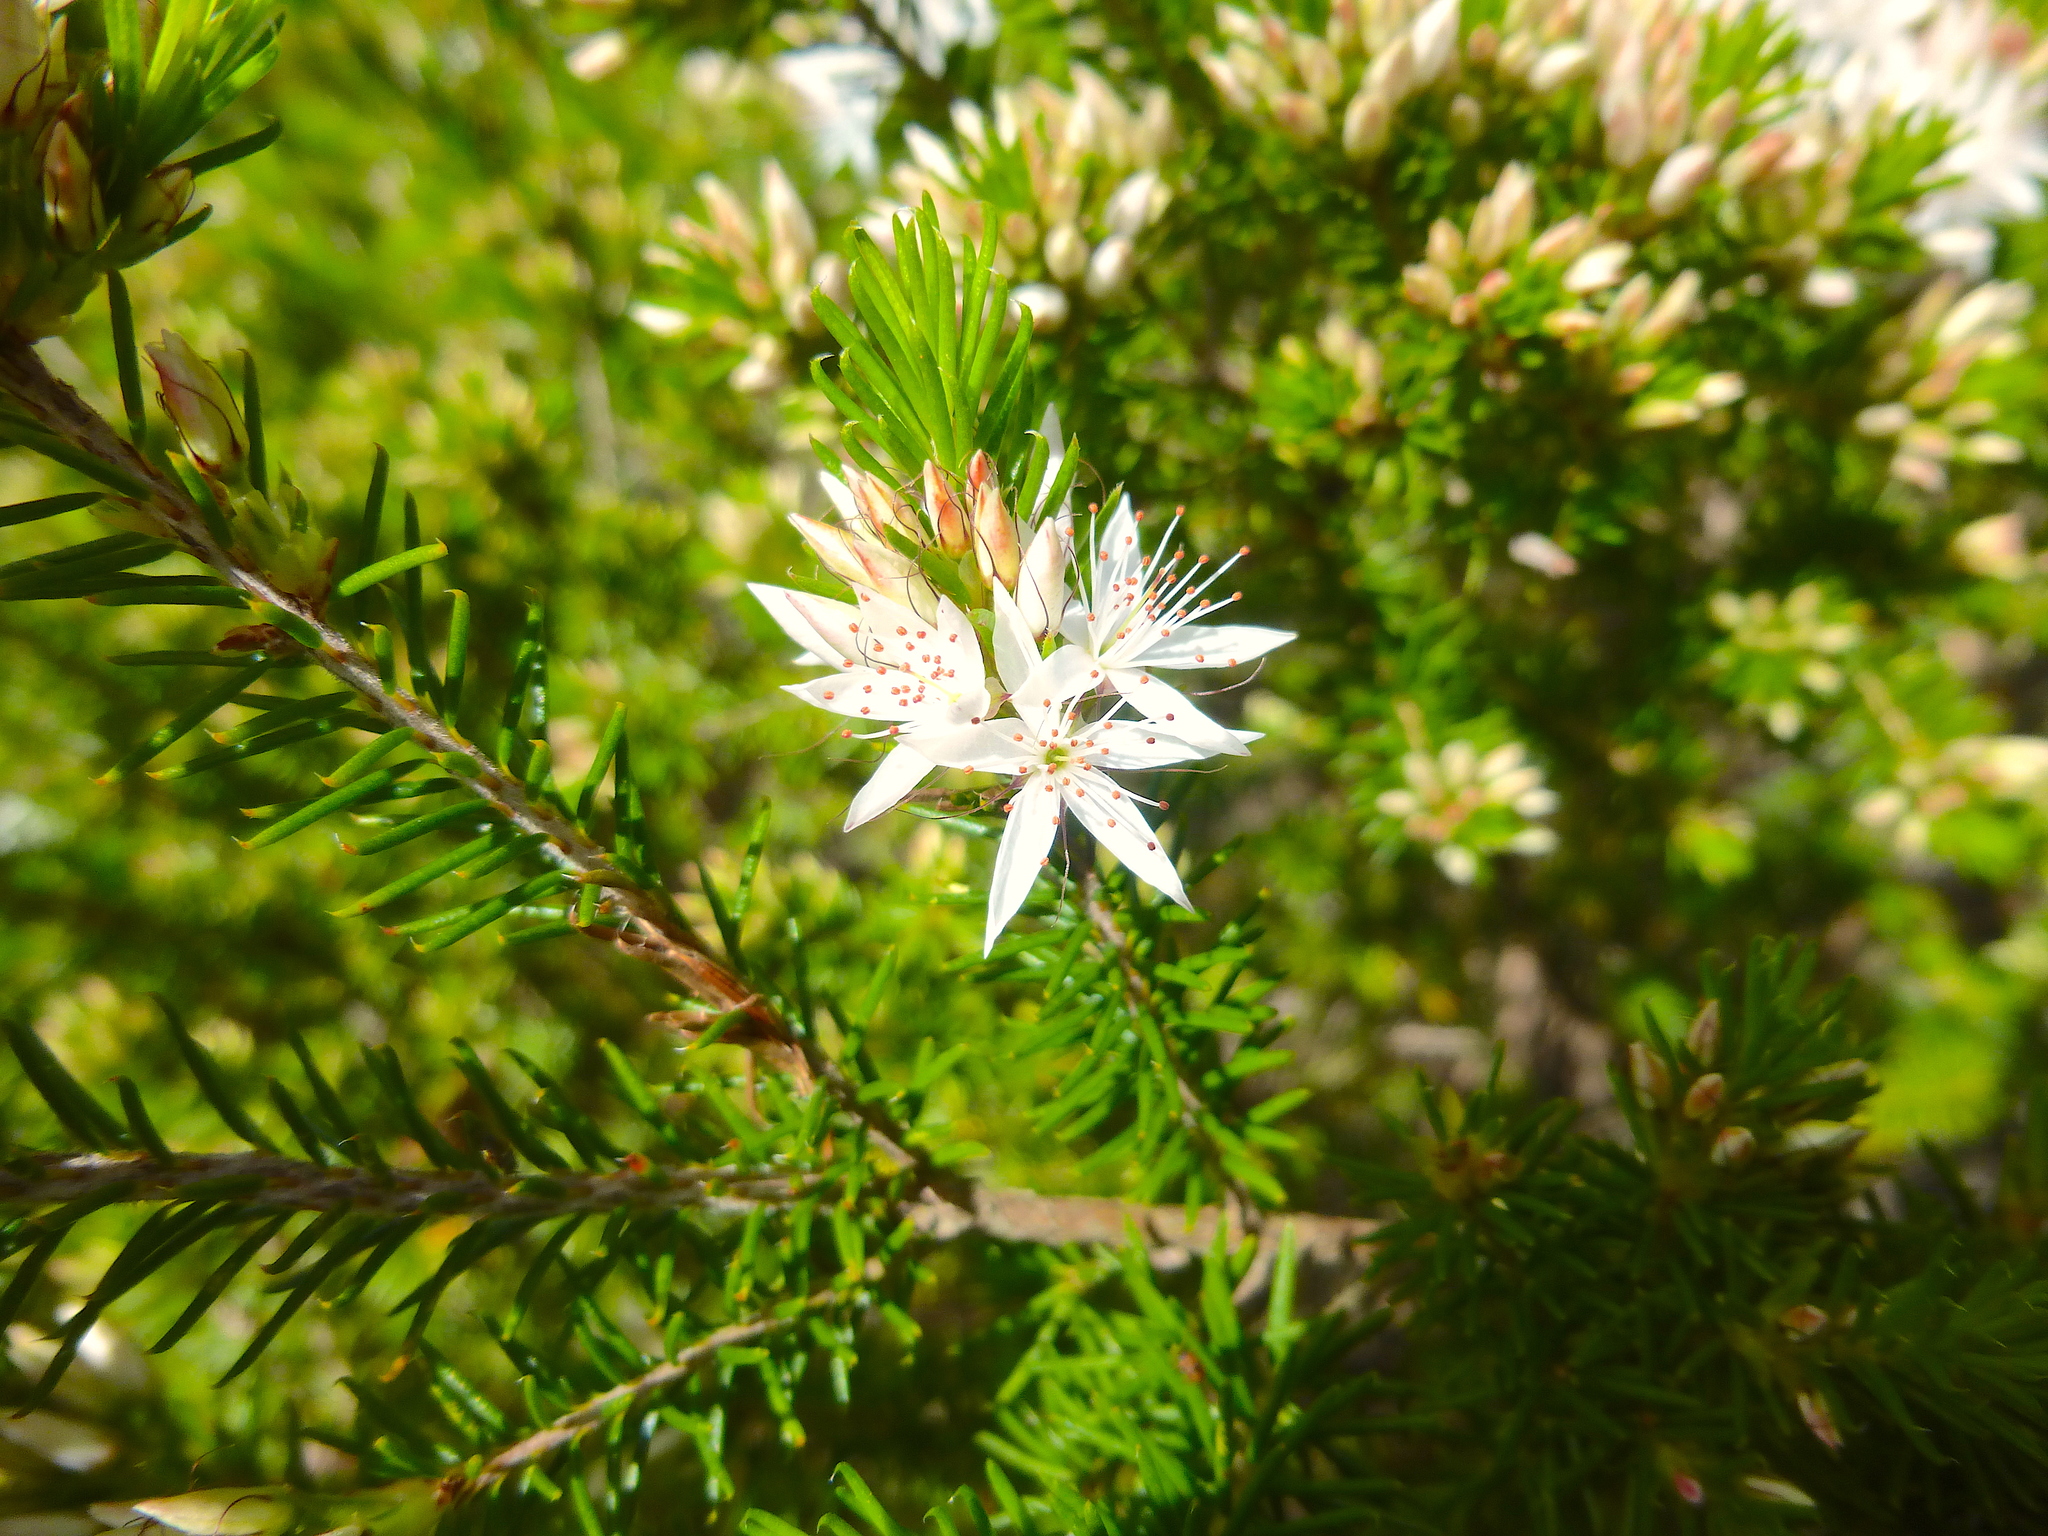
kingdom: Plantae
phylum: Tracheophyta
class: Magnoliopsida
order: Myrtales
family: Myrtaceae
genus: Calytrix
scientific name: Calytrix tetragona
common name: Common fringe myrtle
